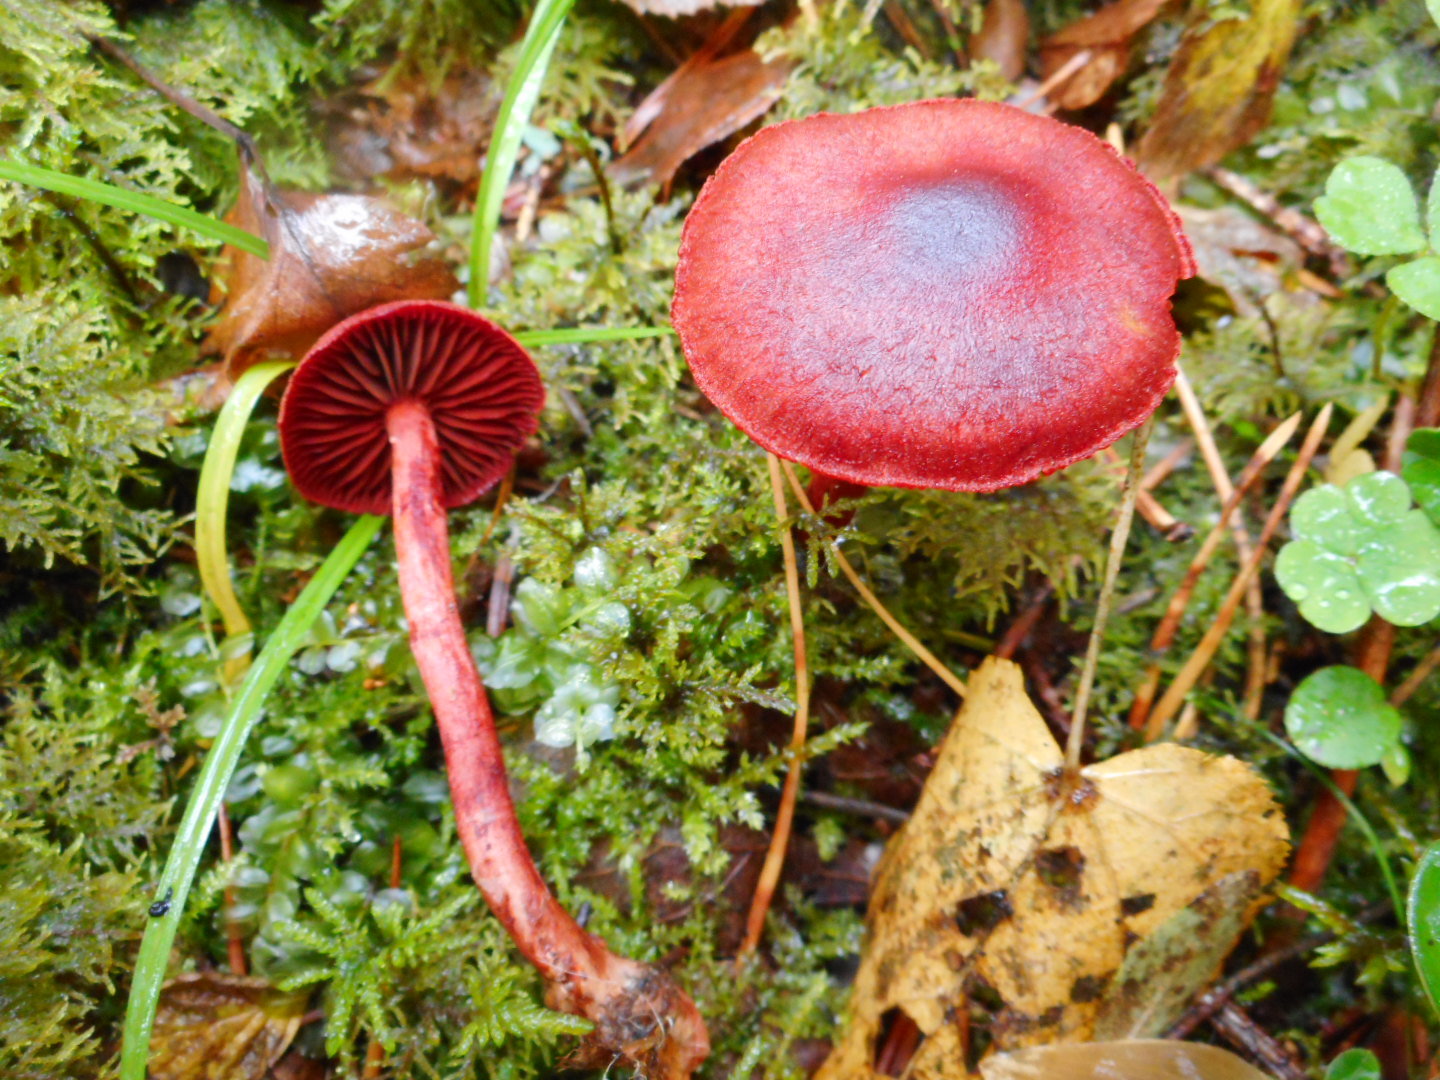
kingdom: Fungi
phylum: Basidiomycota
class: Agaricomycetes
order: Agaricales
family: Cortinariaceae
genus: Cortinarius
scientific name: Cortinarius sanguineus
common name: Bloodred webcap
